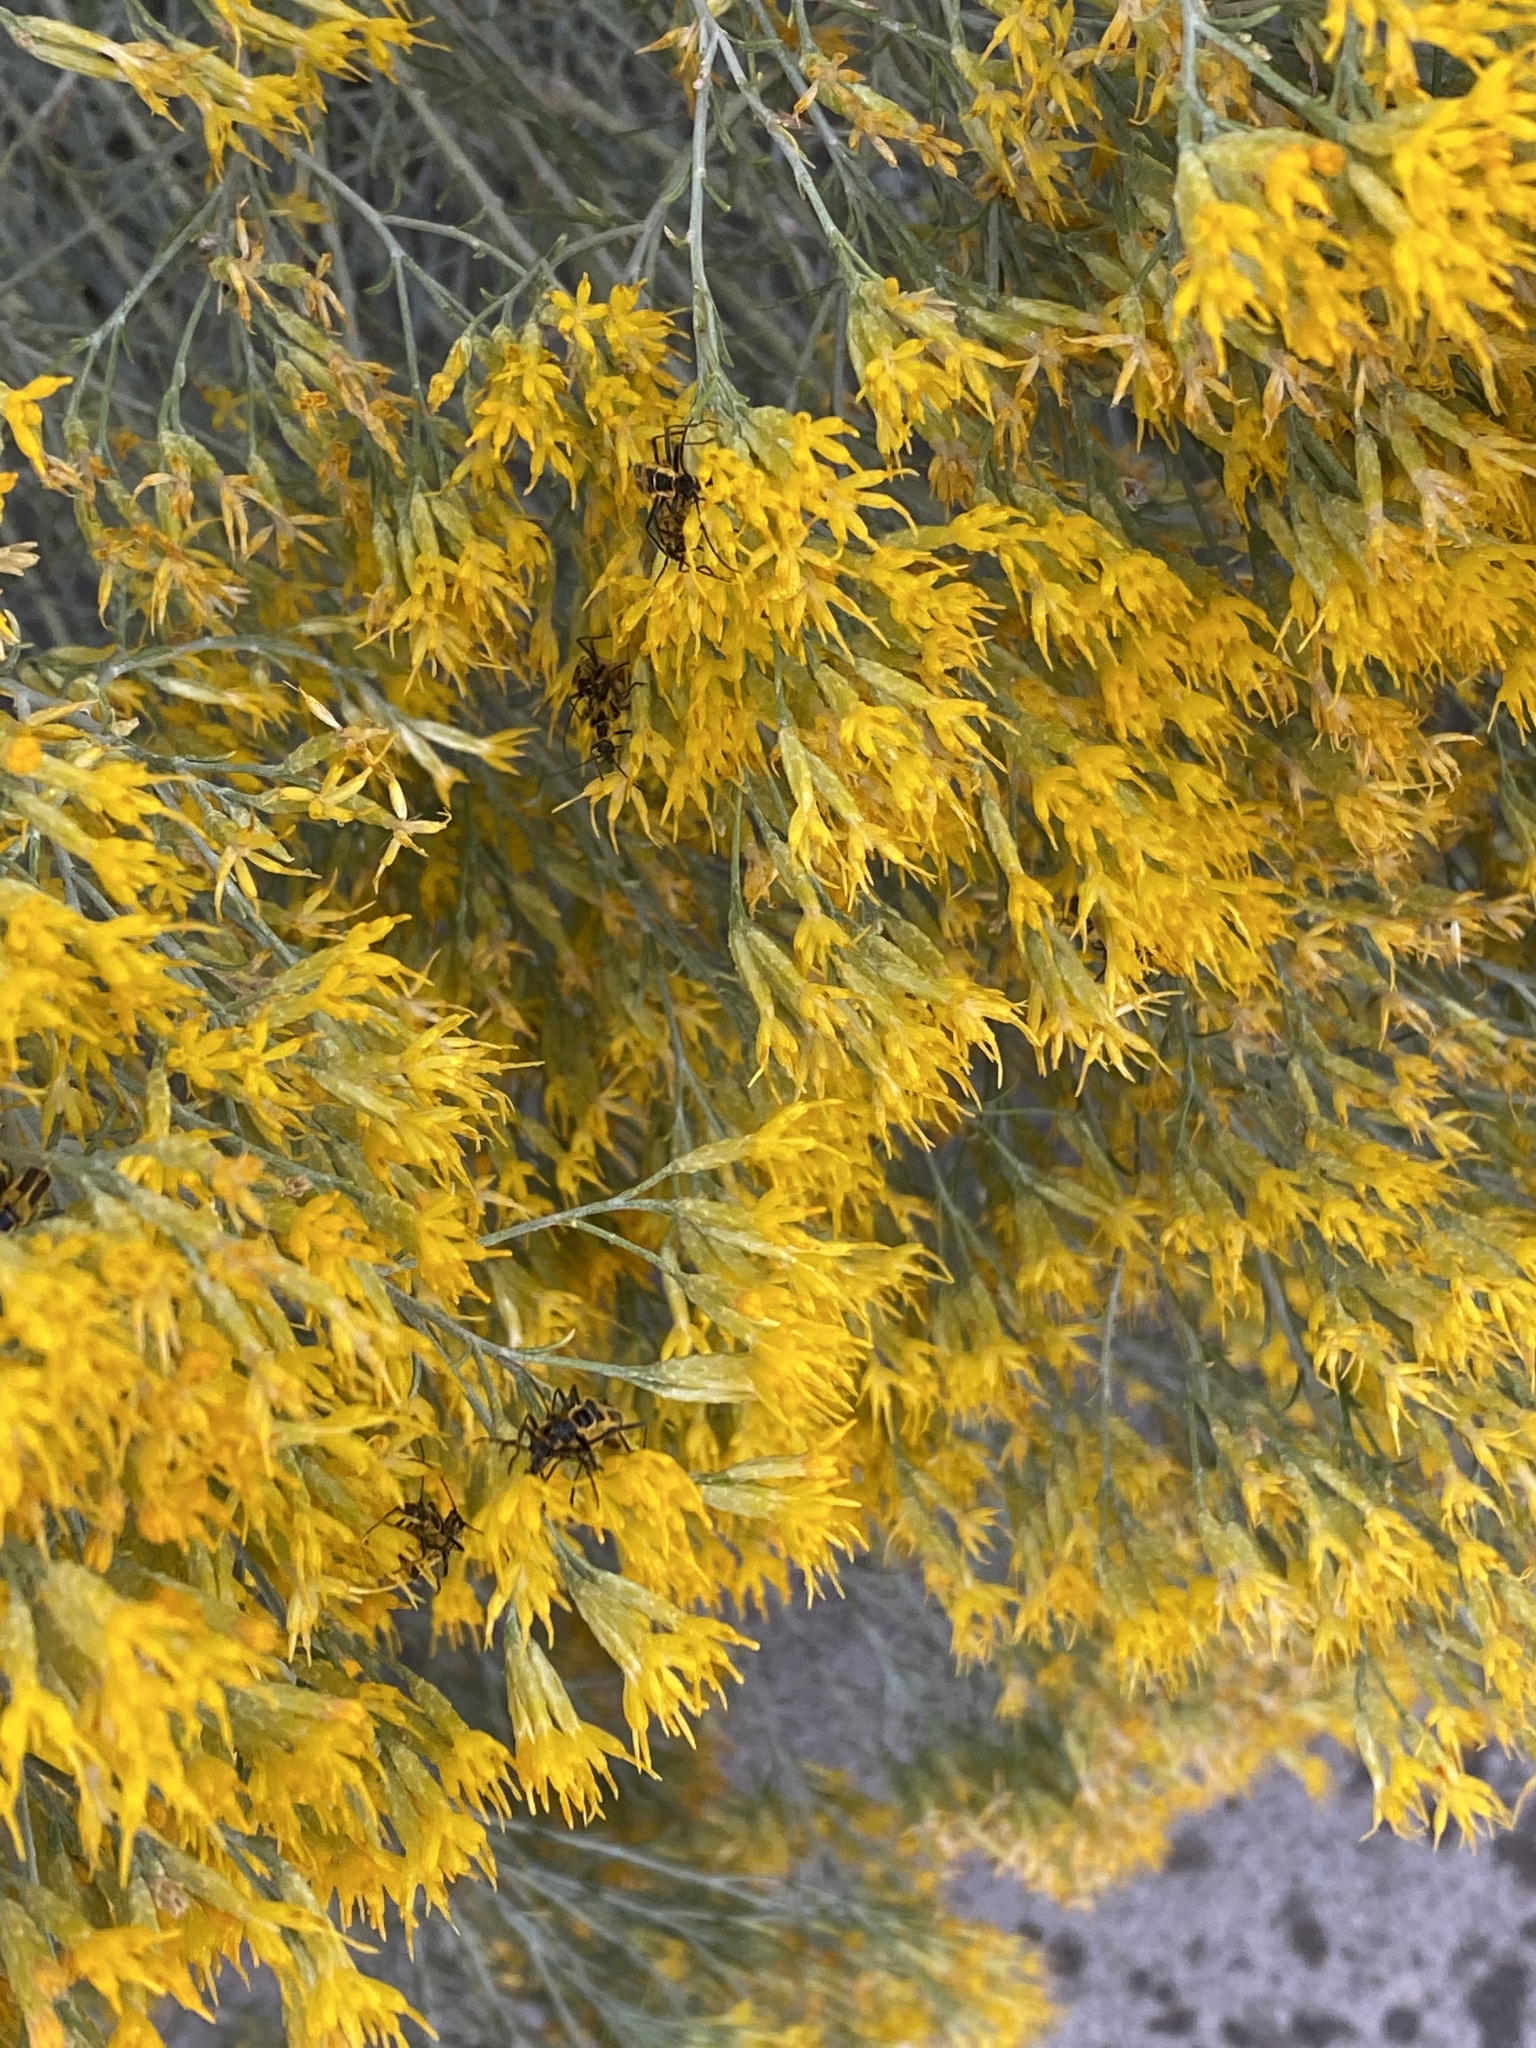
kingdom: Animalia
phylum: Arthropoda
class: Insecta
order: Coleoptera
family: Cantharidae
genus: Chauliognathus
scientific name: Chauliognathus lewisi
